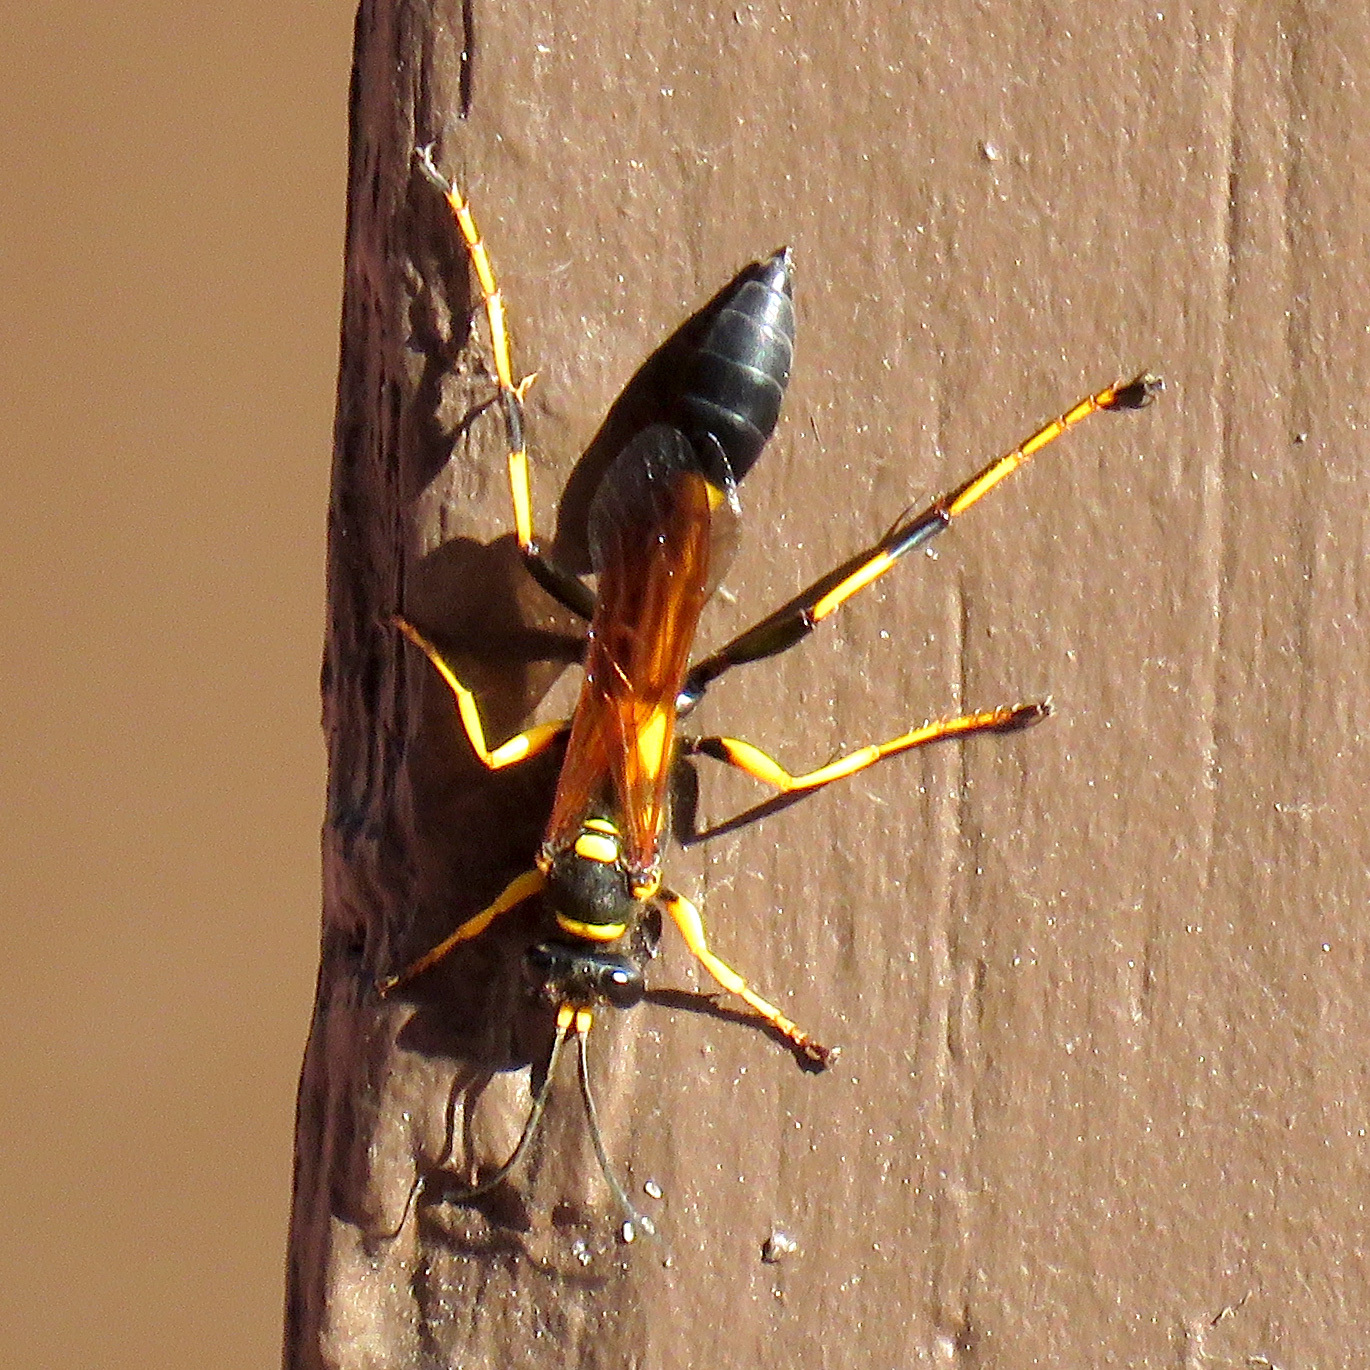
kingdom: Animalia
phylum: Arthropoda
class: Insecta
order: Hymenoptera
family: Sphecidae
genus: Sceliphron
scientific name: Sceliphron caementarium
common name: Mud dauber
